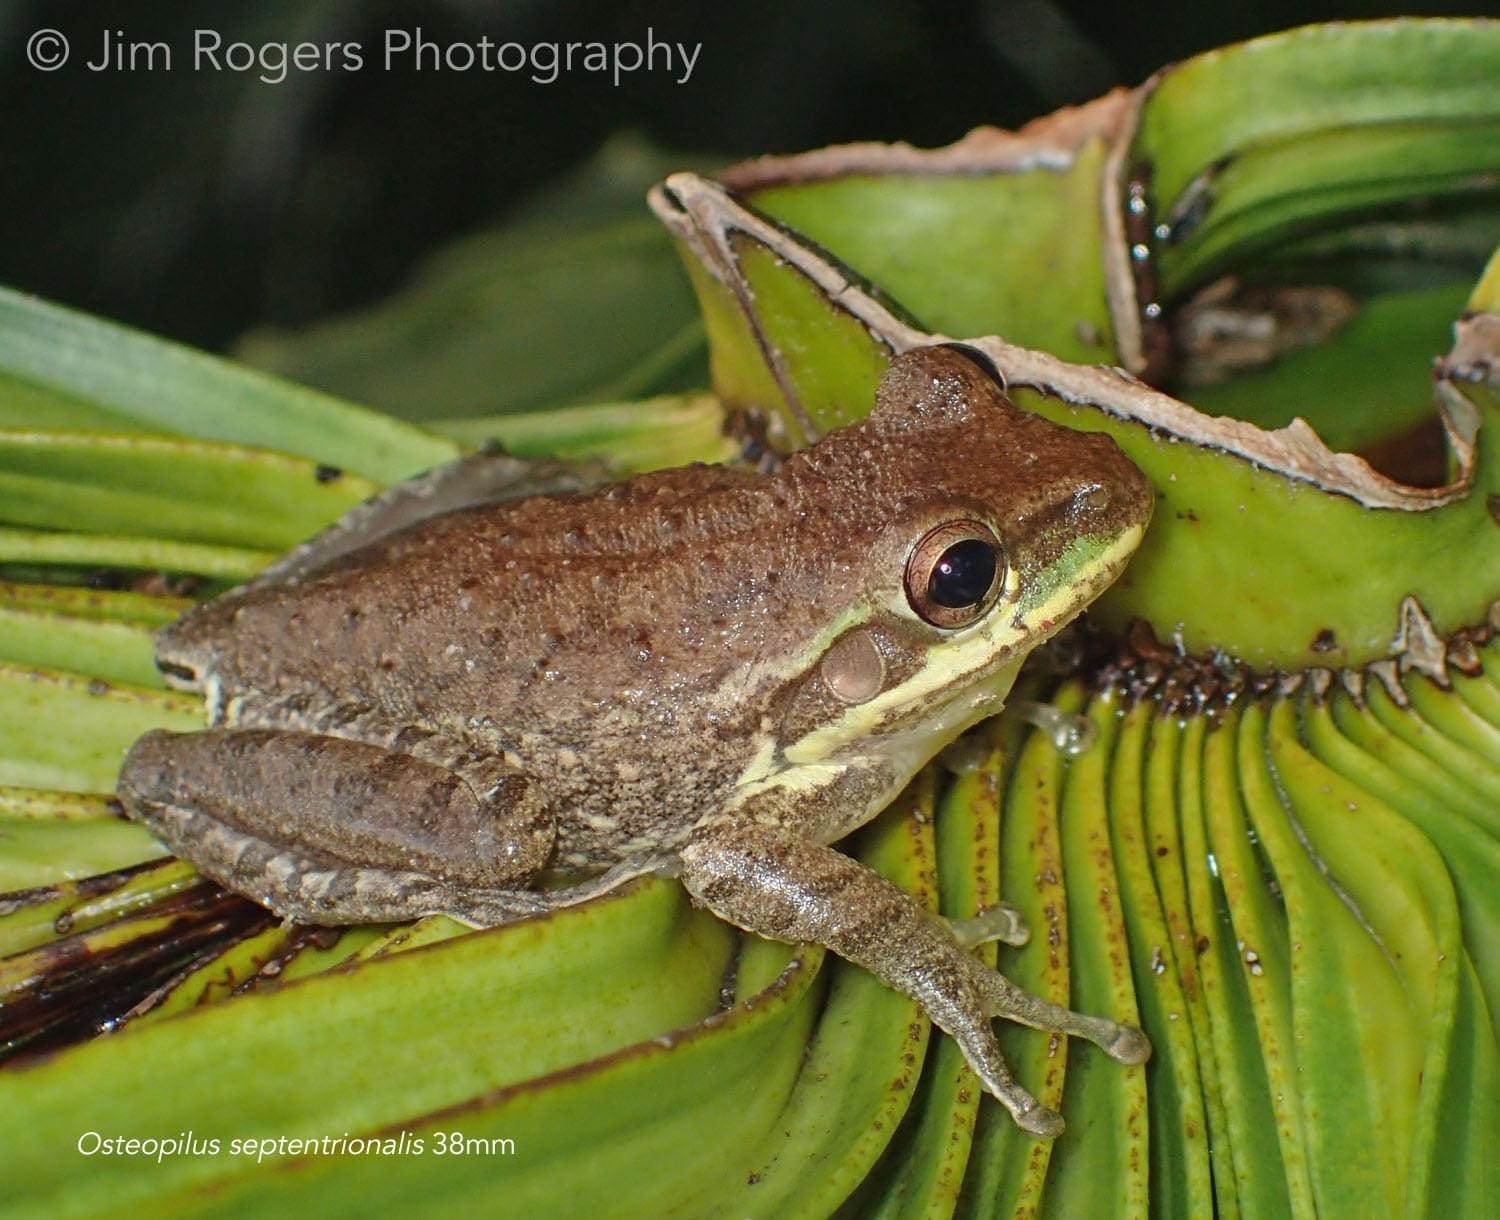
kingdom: Animalia
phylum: Chordata
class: Amphibia
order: Anura
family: Hylidae
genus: Osteopilus
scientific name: Osteopilus septentrionalis
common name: Cuban treefrog
